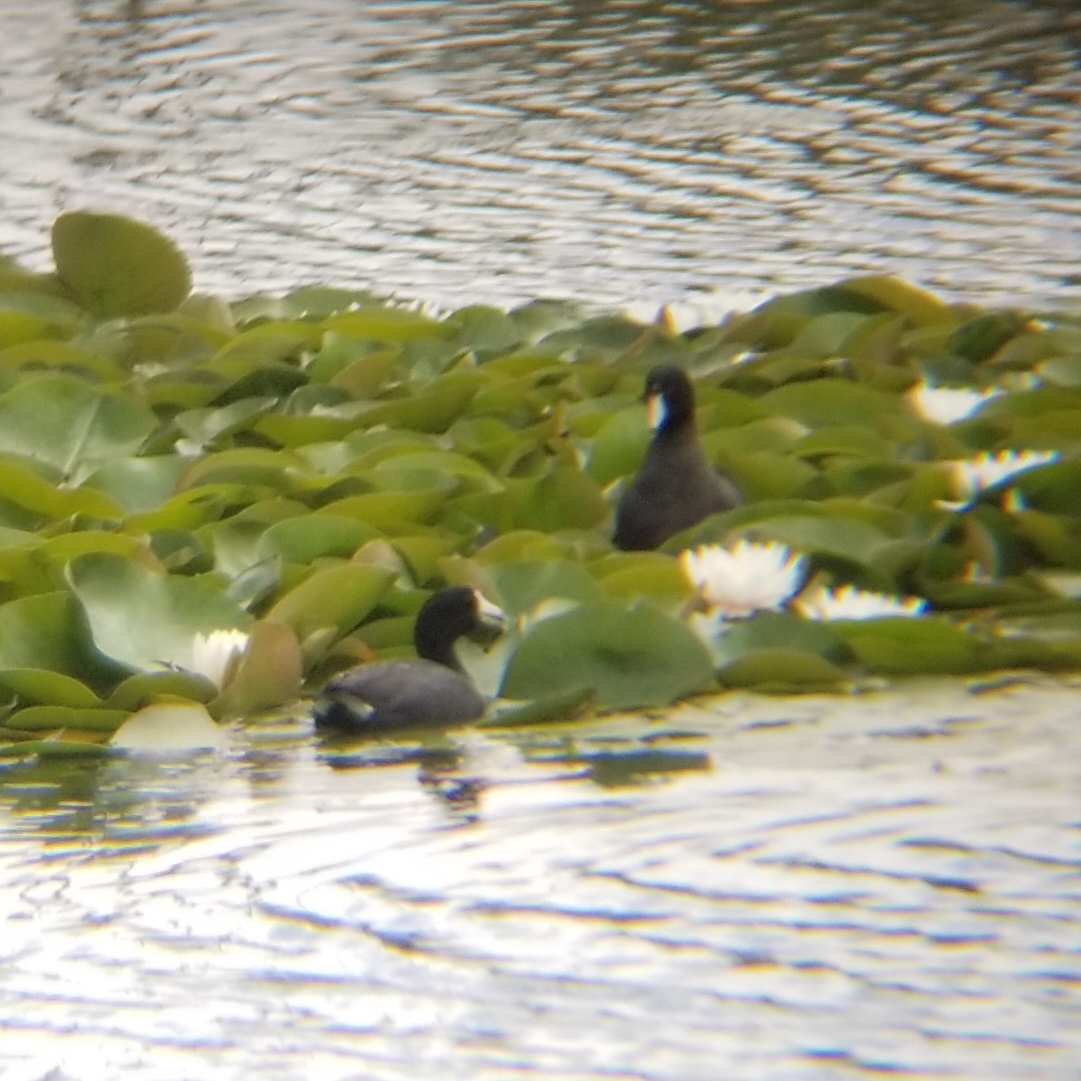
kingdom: Animalia
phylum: Chordata
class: Aves
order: Gruiformes
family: Rallidae
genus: Fulica
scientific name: Fulica americana
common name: American coot
